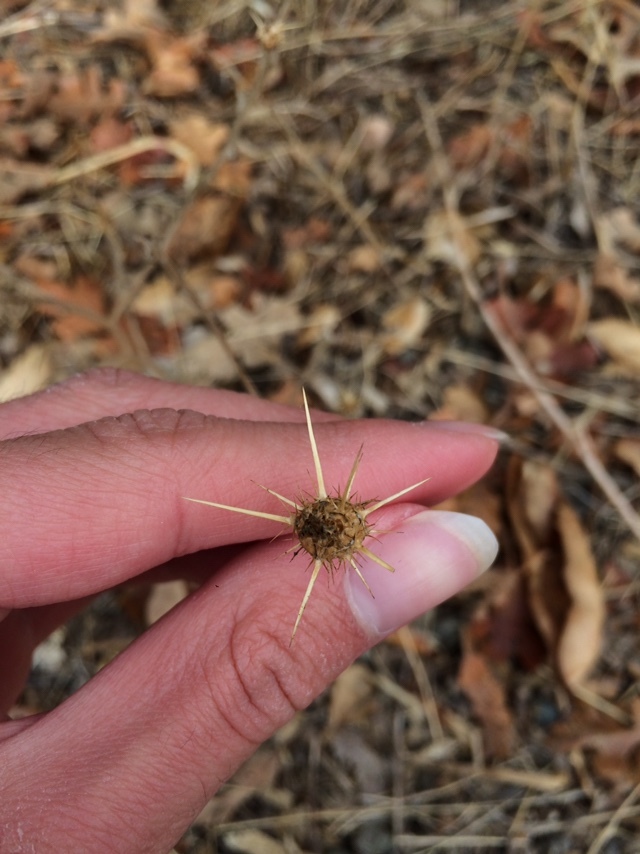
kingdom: Plantae
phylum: Tracheophyta
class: Magnoliopsida
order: Asterales
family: Asteraceae
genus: Centaurea
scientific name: Centaurea solstitialis
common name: Yellow star-thistle
